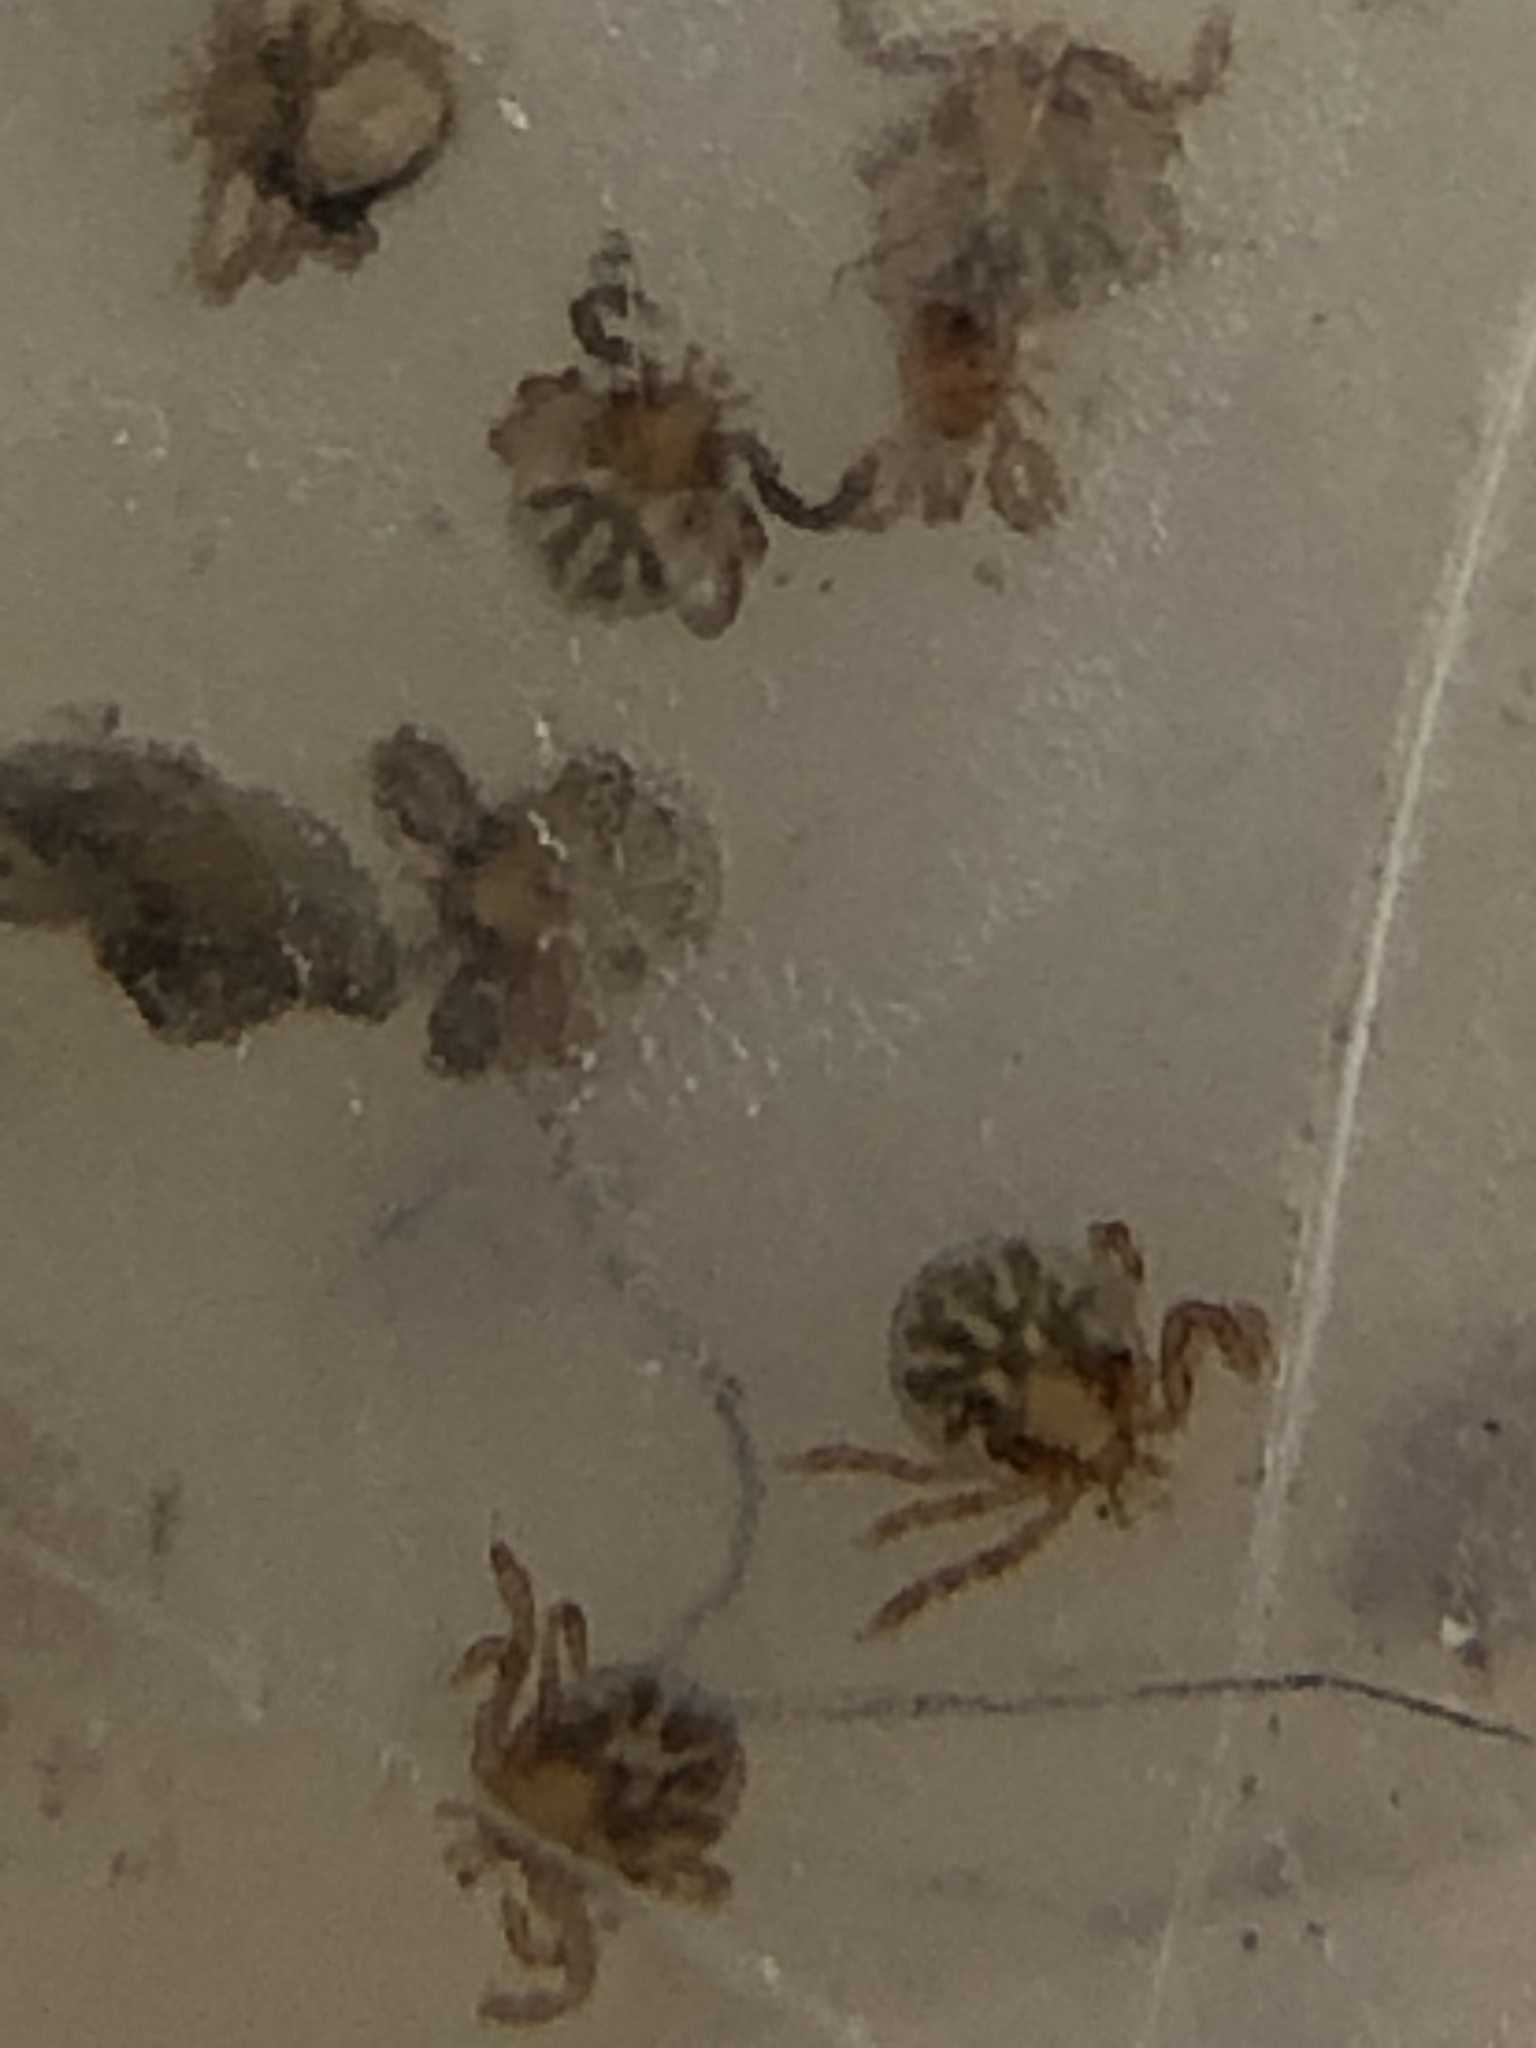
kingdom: Animalia
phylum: Arthropoda
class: Arachnida
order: Ixodida
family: Ixodidae
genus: Dermacentor
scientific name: Dermacentor variabilis
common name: American dog tick
